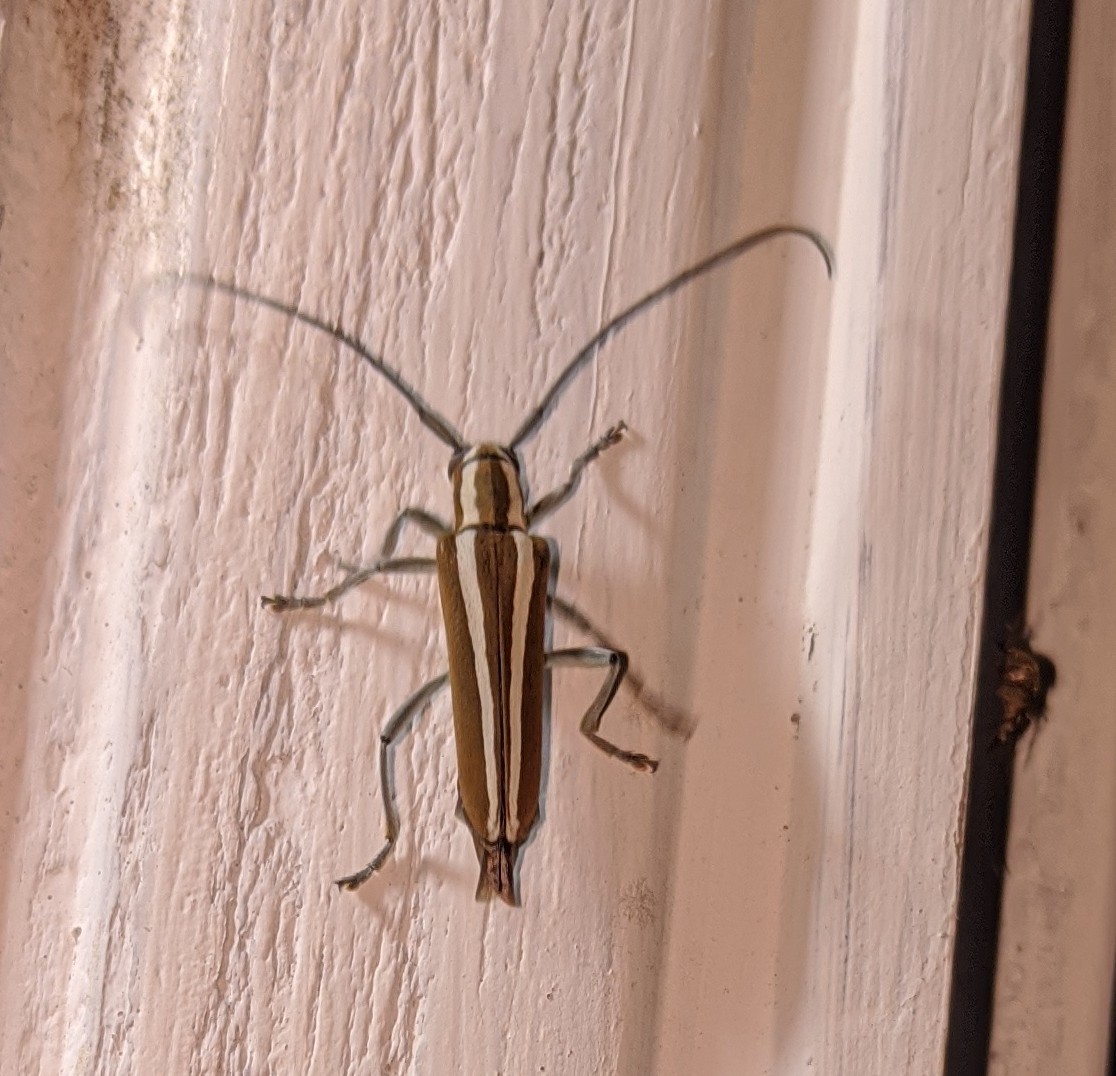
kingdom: Animalia
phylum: Arthropoda
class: Insecta
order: Coleoptera
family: Cerambycidae
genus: Saperda
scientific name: Saperda candida
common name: Round-headed borer
